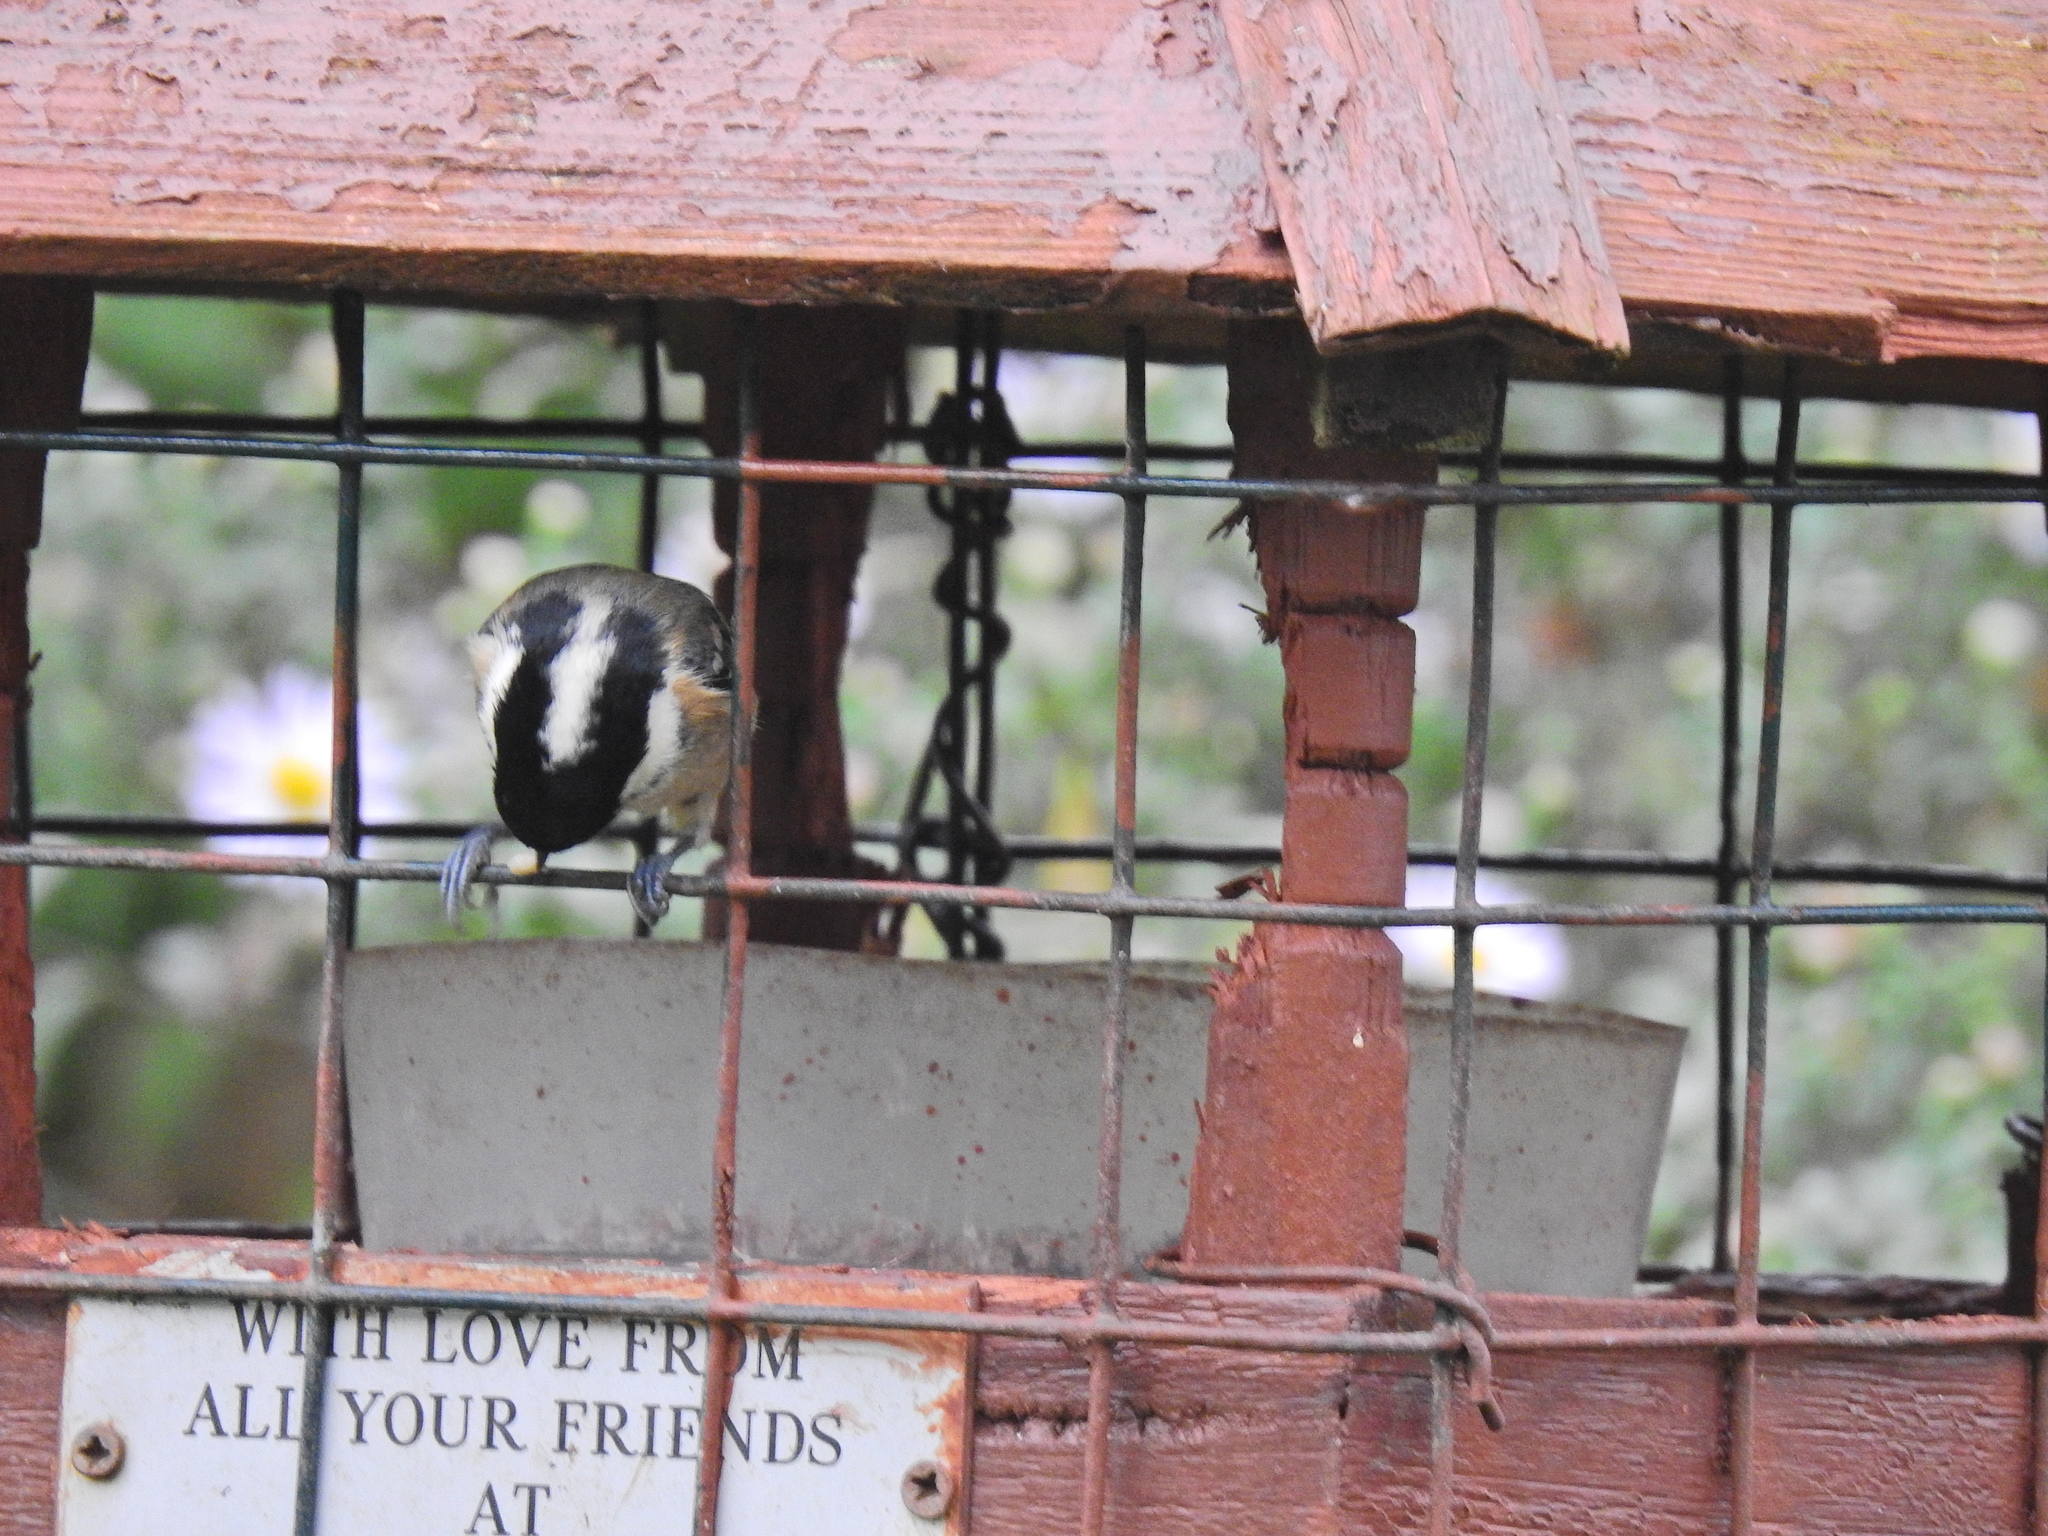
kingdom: Animalia
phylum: Chordata
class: Aves
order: Passeriformes
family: Paridae
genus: Periparus
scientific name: Periparus ater
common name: Coal tit
